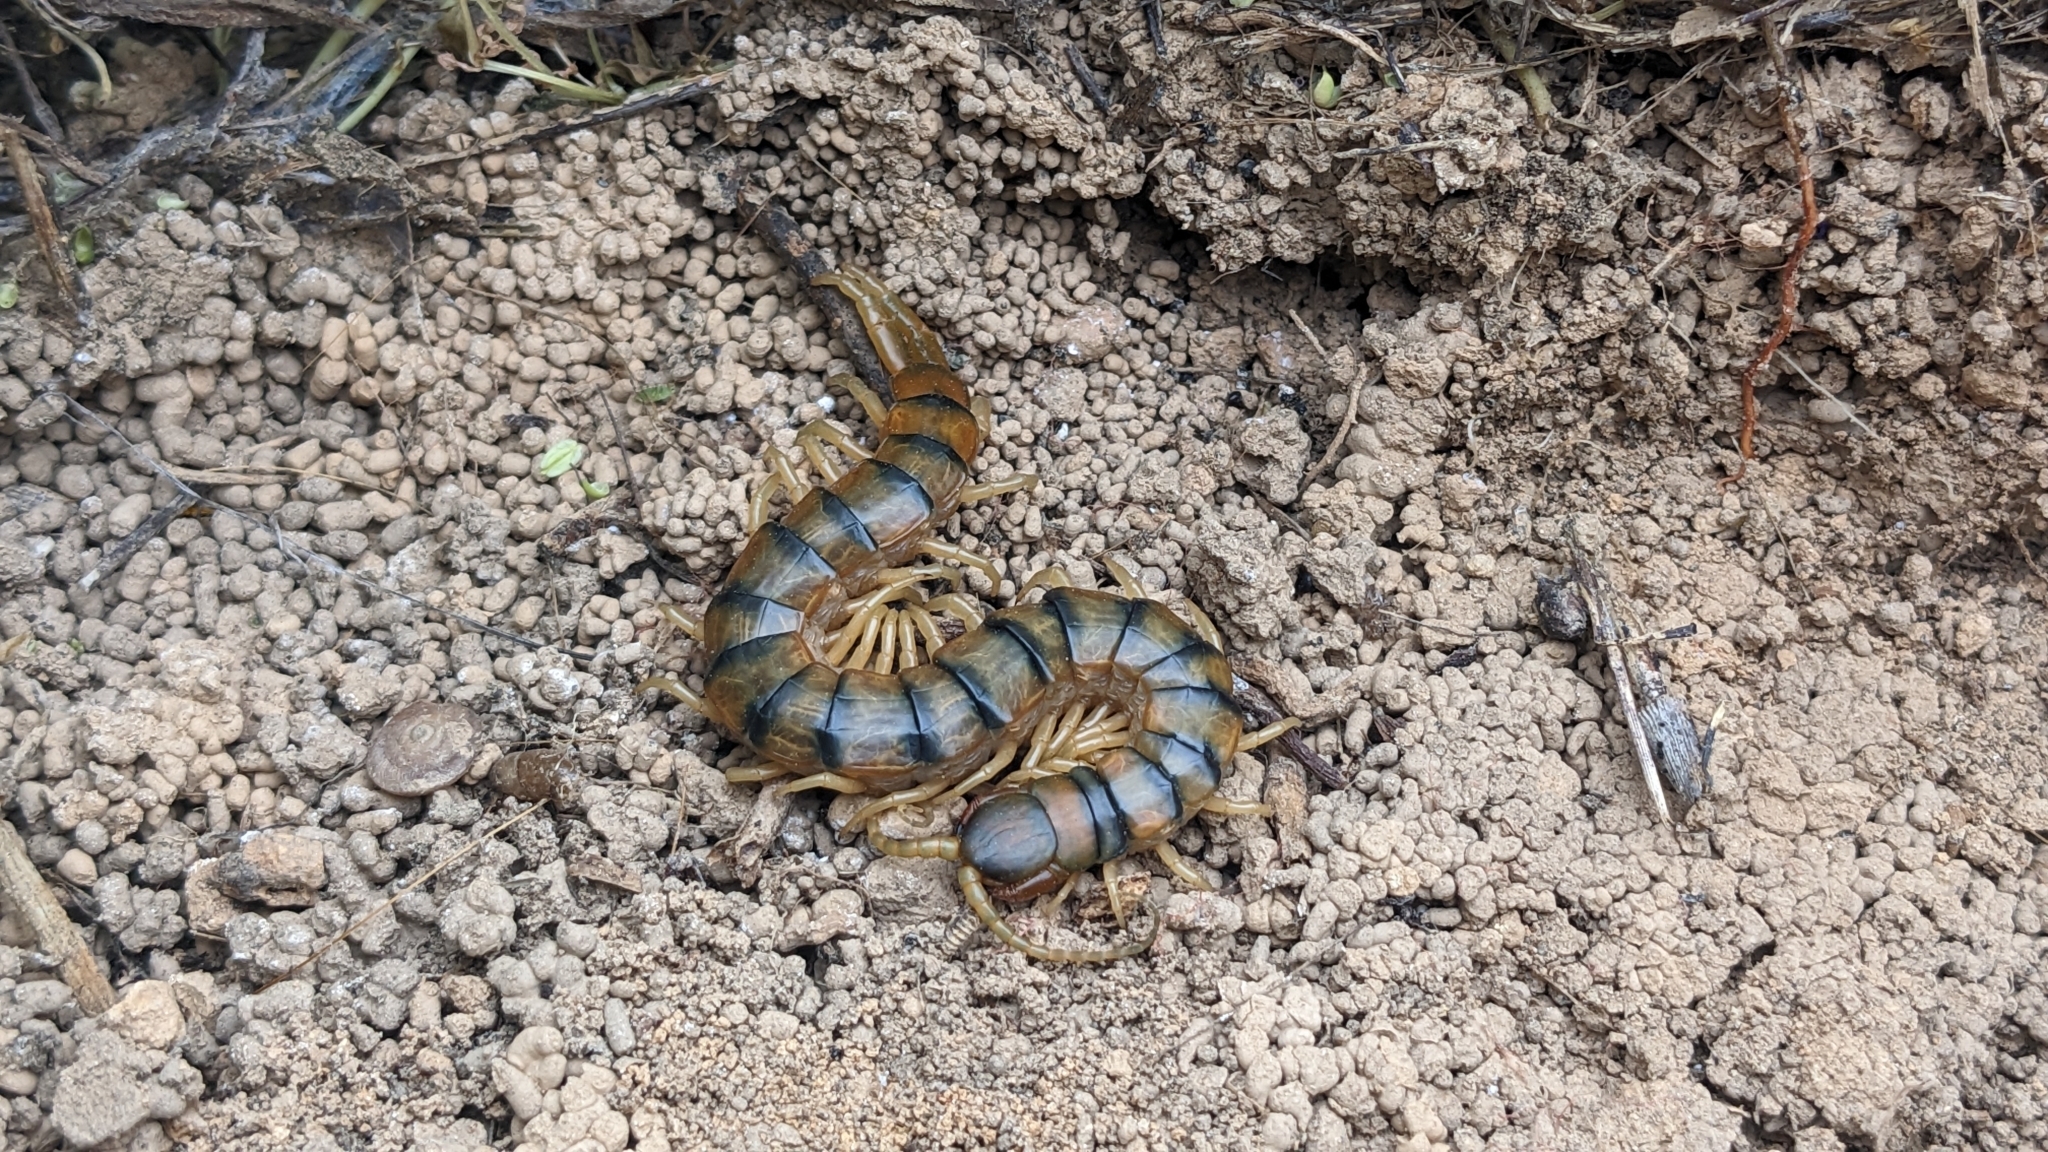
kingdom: Animalia
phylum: Arthropoda
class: Chilopoda
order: Scolopendromorpha
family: Scolopendridae
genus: Scolopendra
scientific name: Scolopendra cingulata
